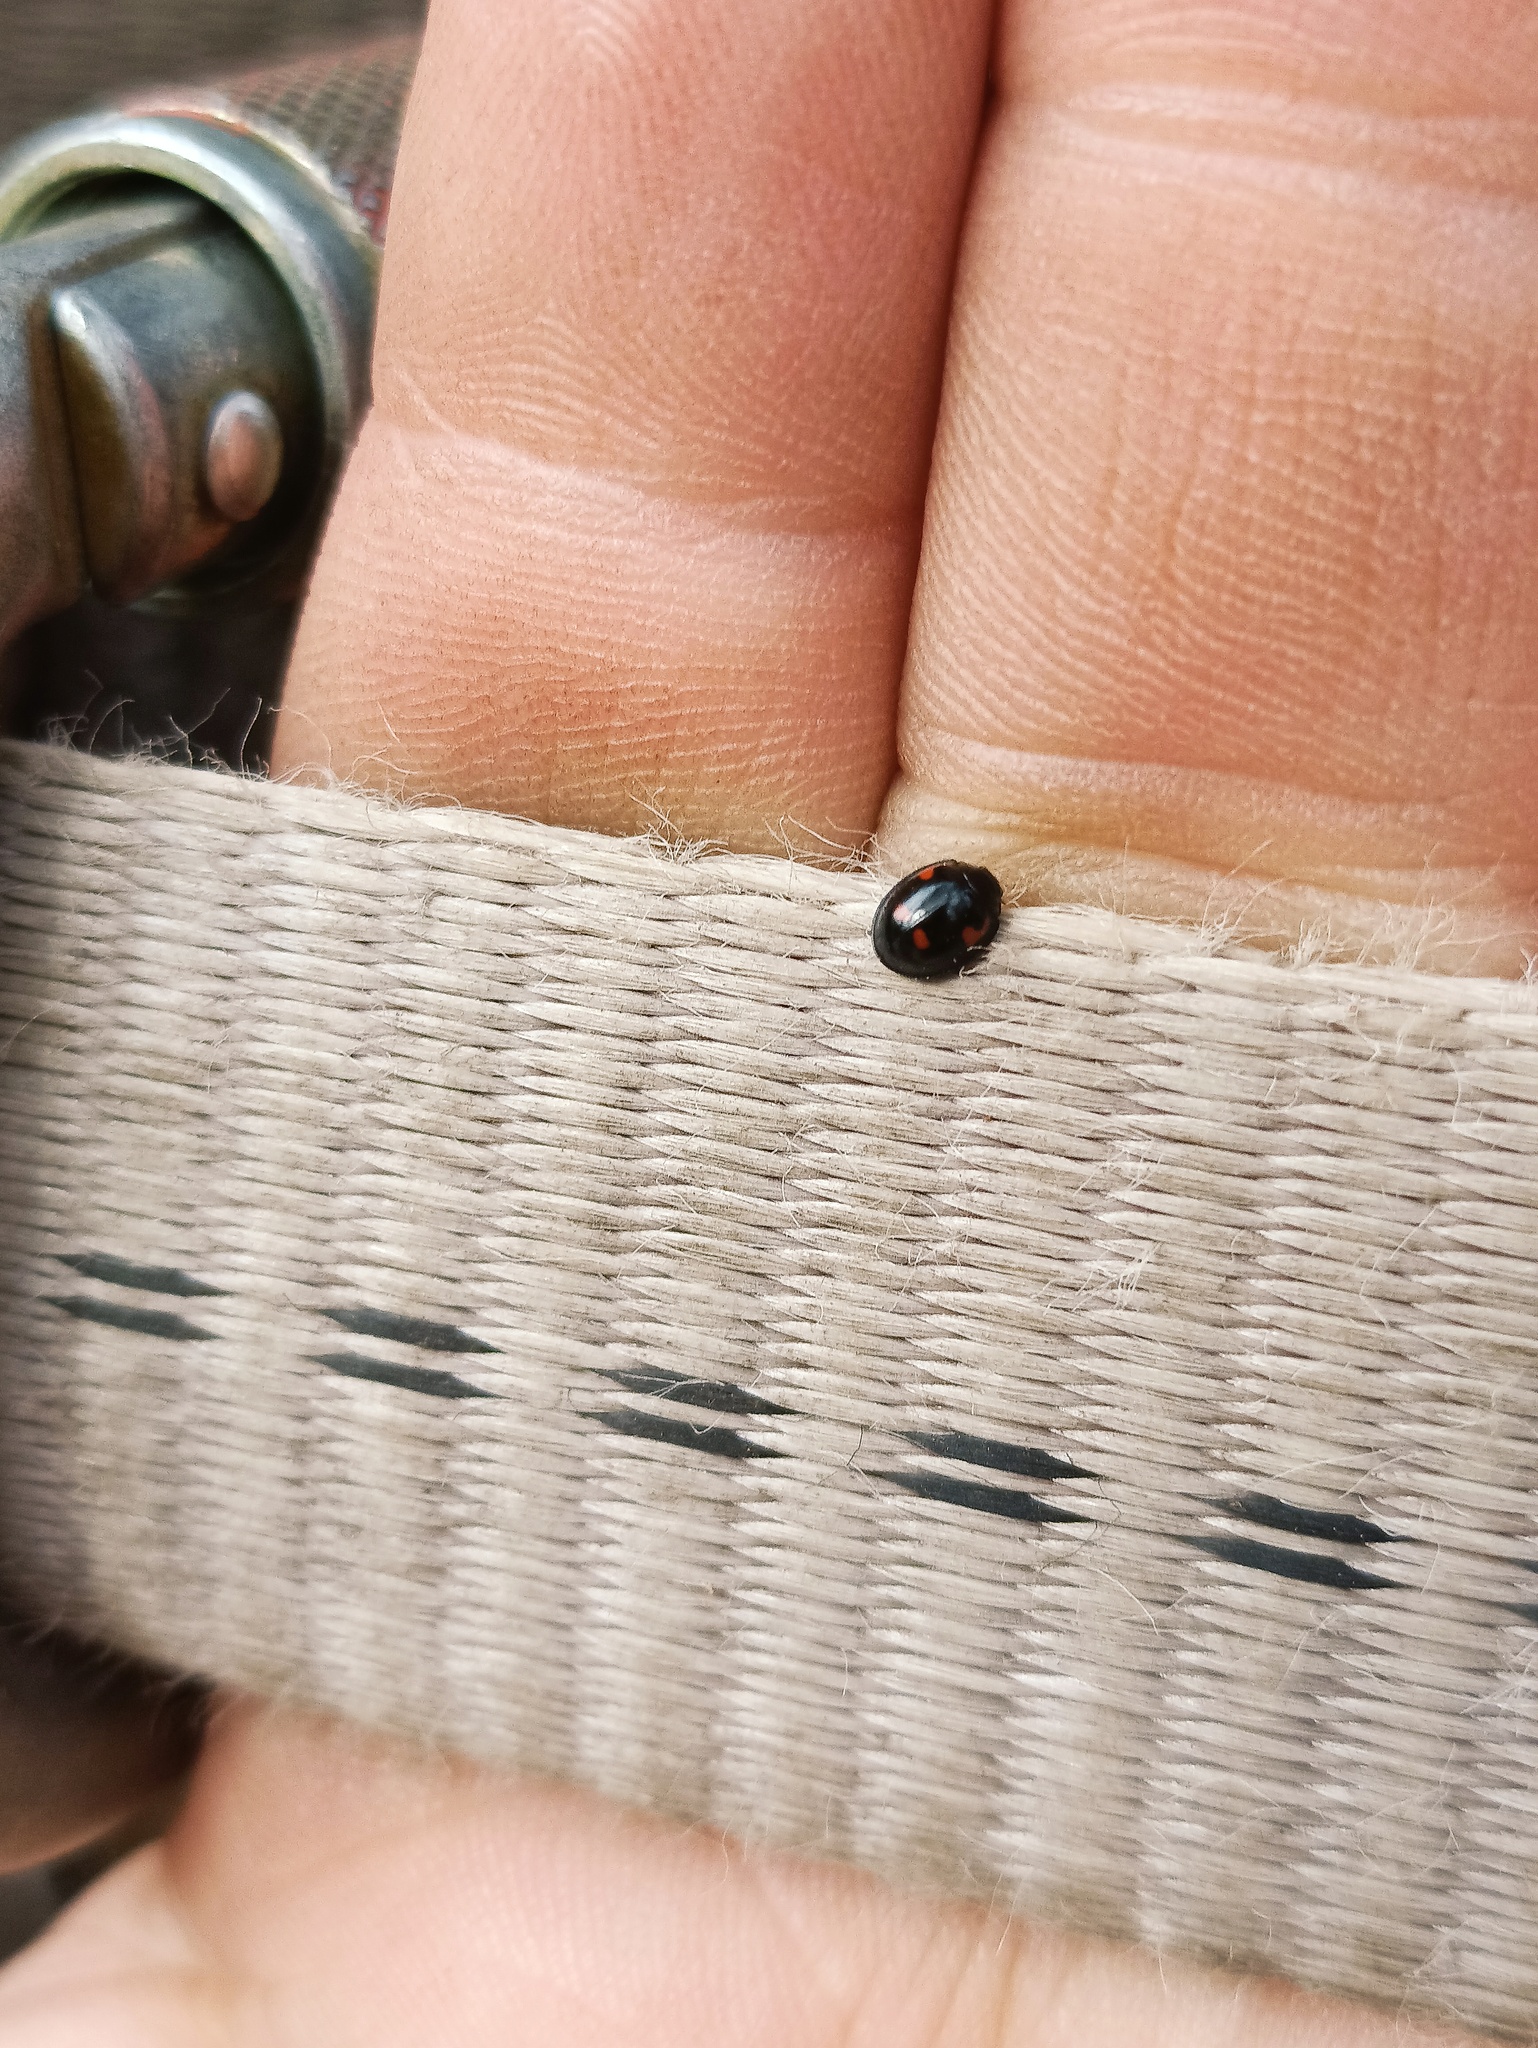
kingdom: Animalia
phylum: Arthropoda
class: Insecta
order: Coleoptera
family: Coccinellidae
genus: Brumus
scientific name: Brumus quadripustulatus
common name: Ladybird beetle
